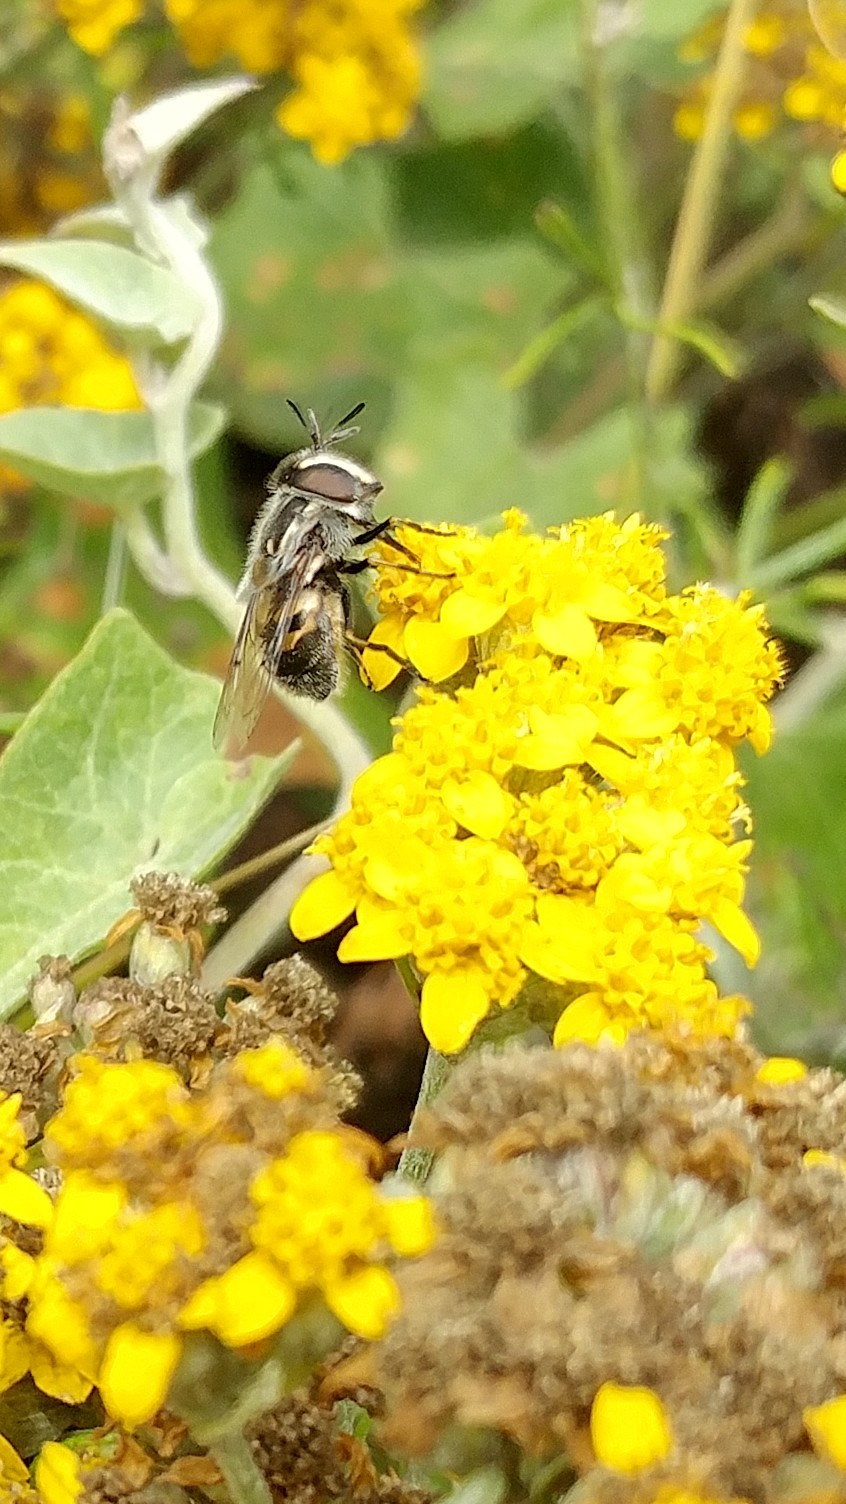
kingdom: Animalia
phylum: Arthropoda
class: Insecta
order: Diptera
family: Syrphidae
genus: Copestylum
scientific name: Copestylum lentum
